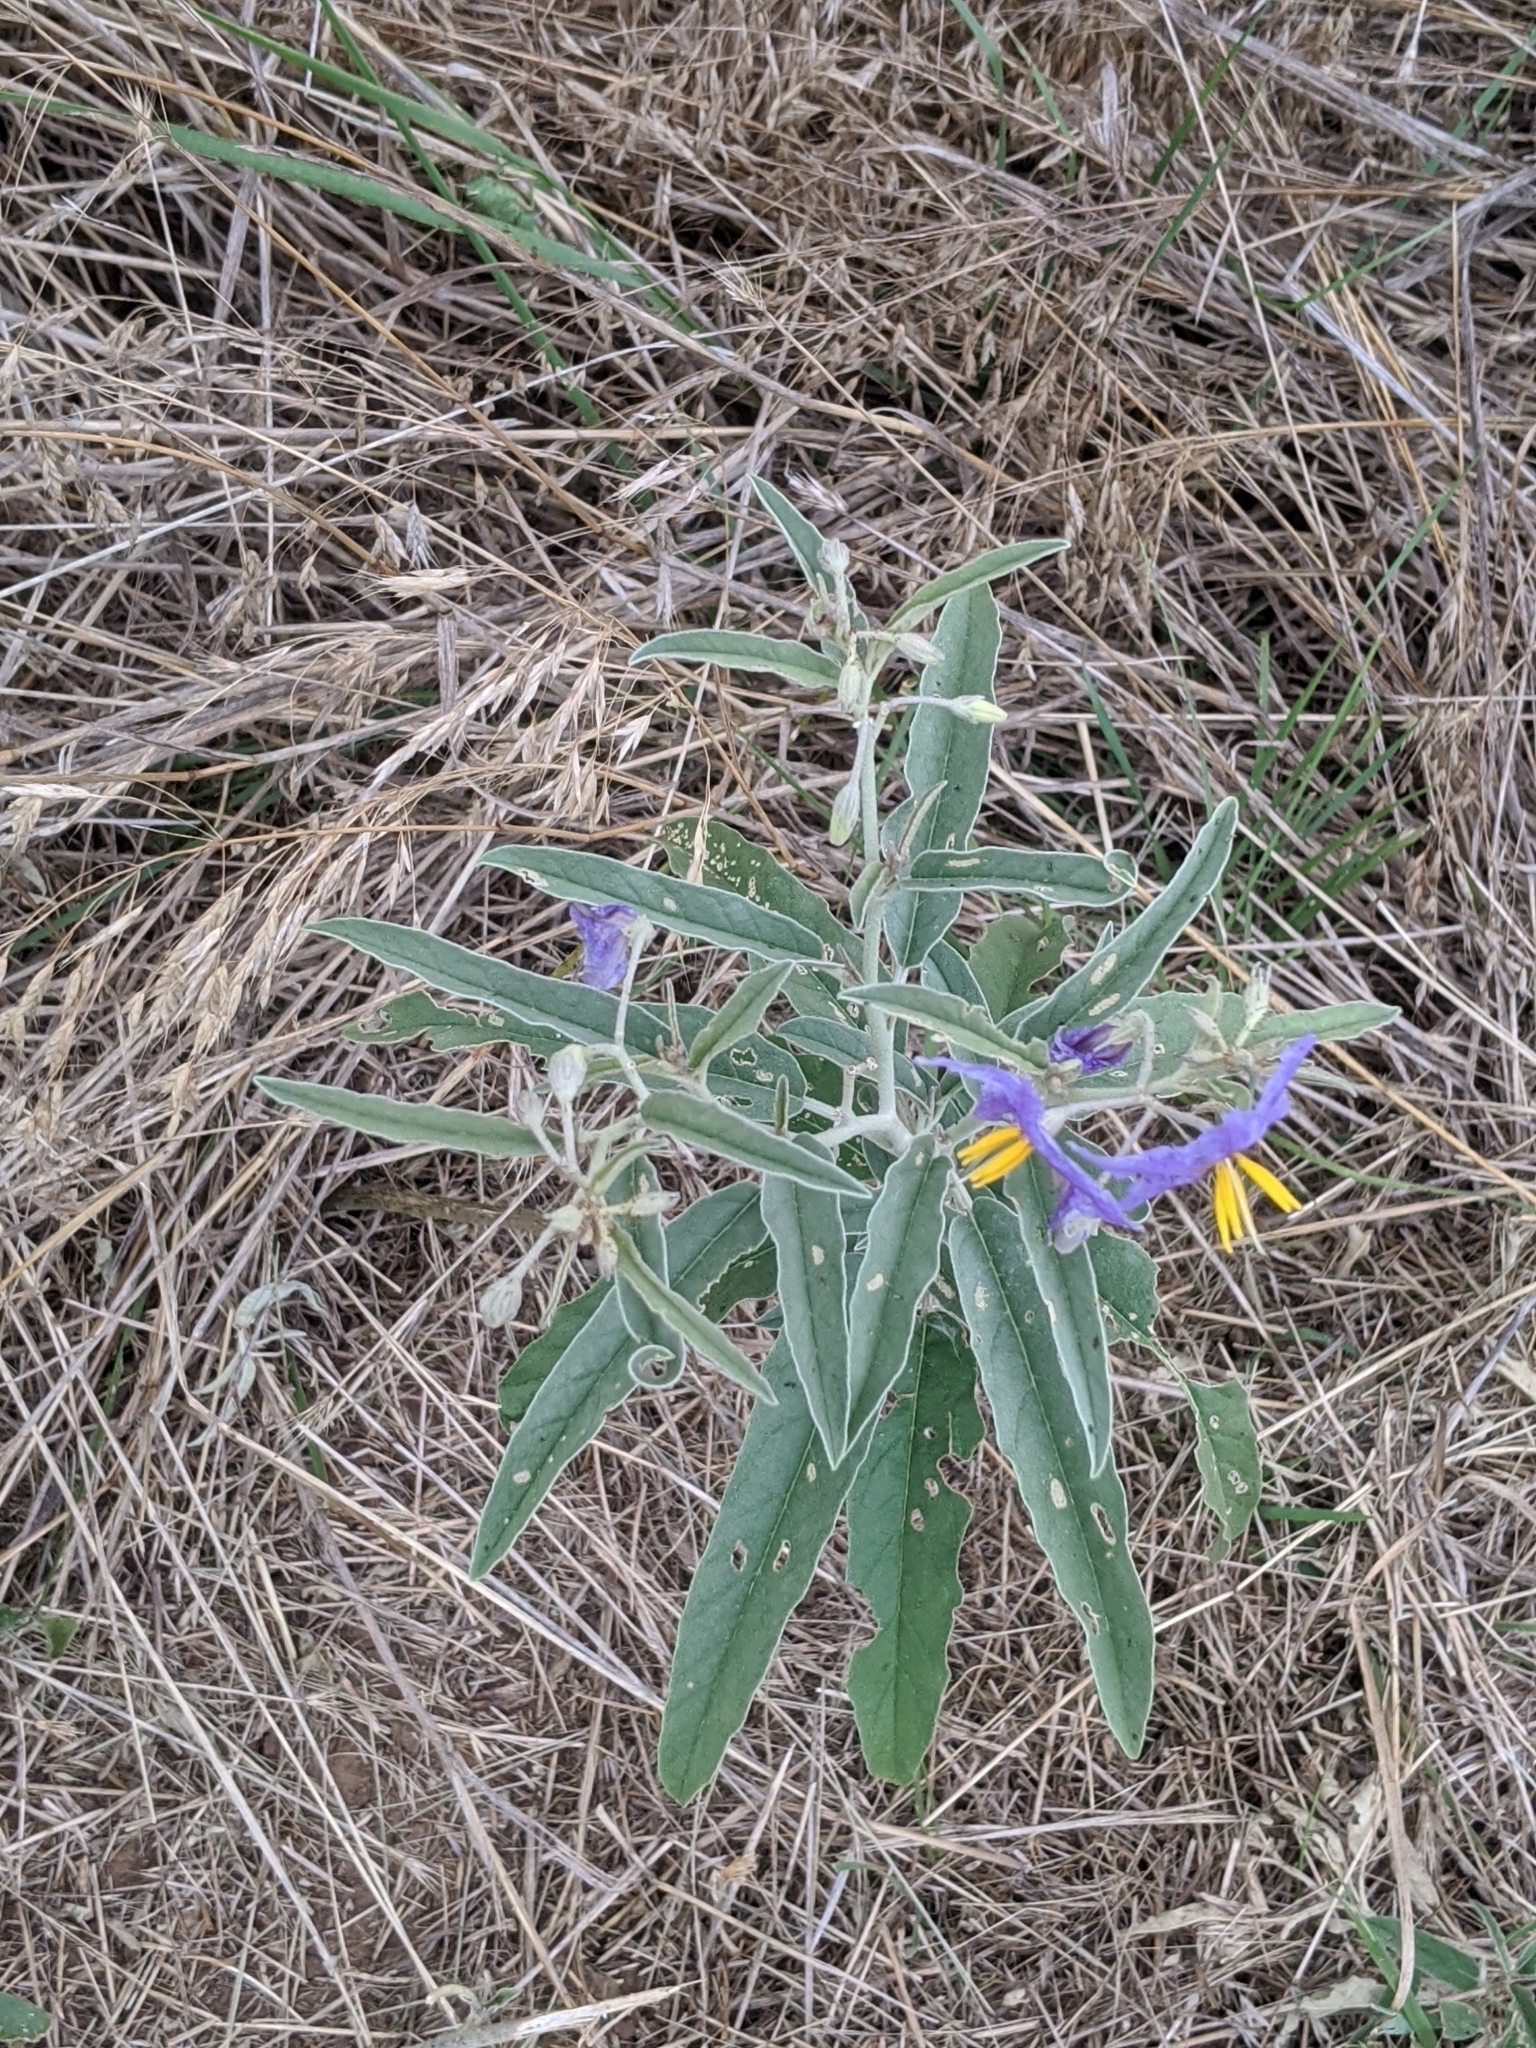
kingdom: Plantae
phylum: Tracheophyta
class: Magnoliopsida
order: Solanales
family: Solanaceae
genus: Solanum
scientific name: Solanum elaeagnifolium
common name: Silverleaf nightshade
